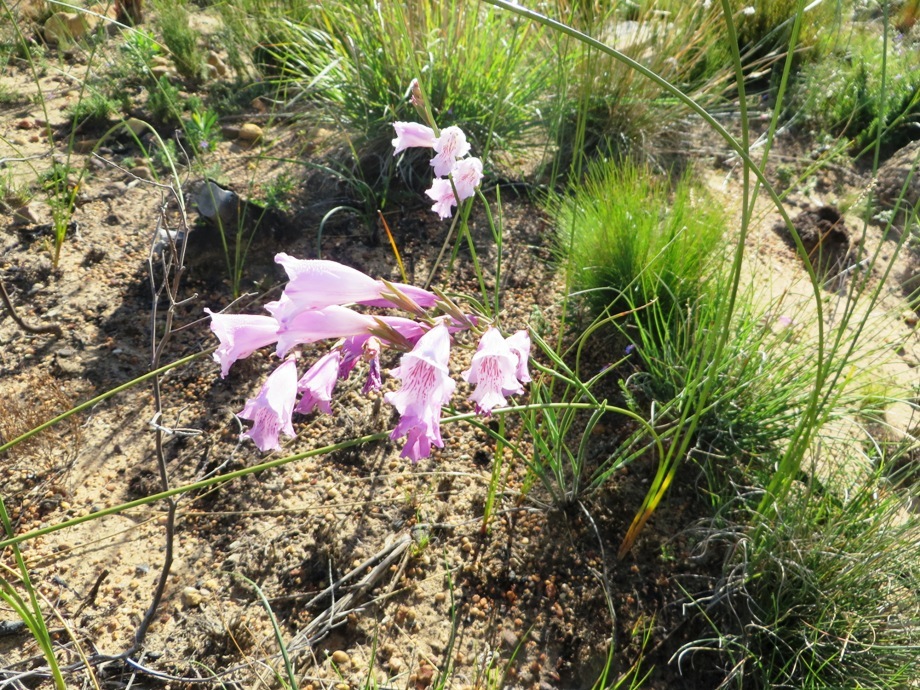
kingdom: Plantae
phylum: Tracheophyta
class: Liliopsida
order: Asparagales
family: Iridaceae
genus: Gladiolus
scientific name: Gladiolus hirsutus
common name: Small pink afrikaner
